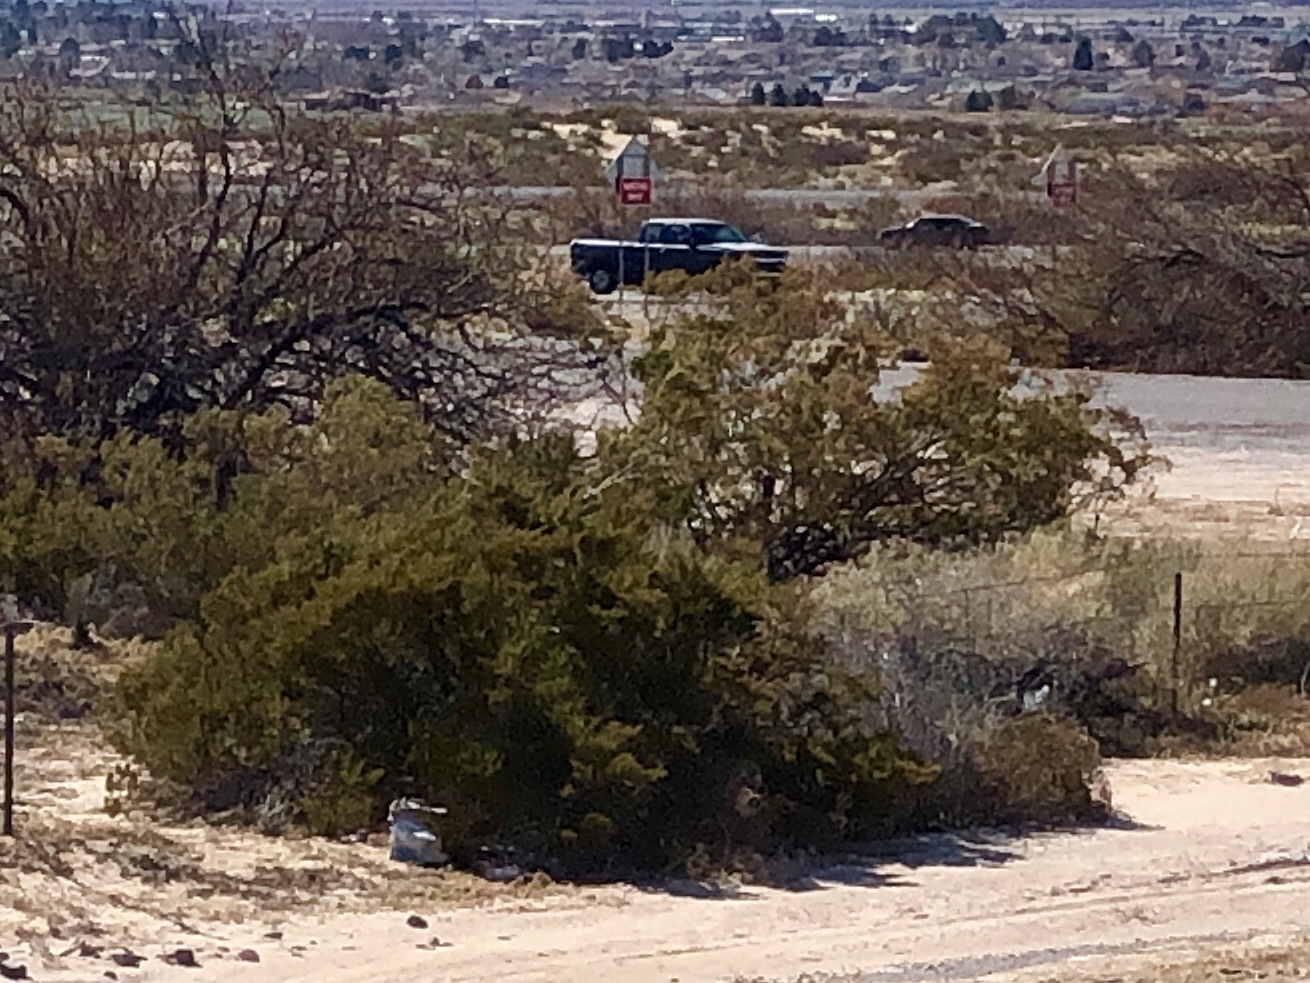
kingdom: Plantae
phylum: Tracheophyta
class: Magnoliopsida
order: Zygophyllales
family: Zygophyllaceae
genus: Larrea
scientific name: Larrea tridentata
